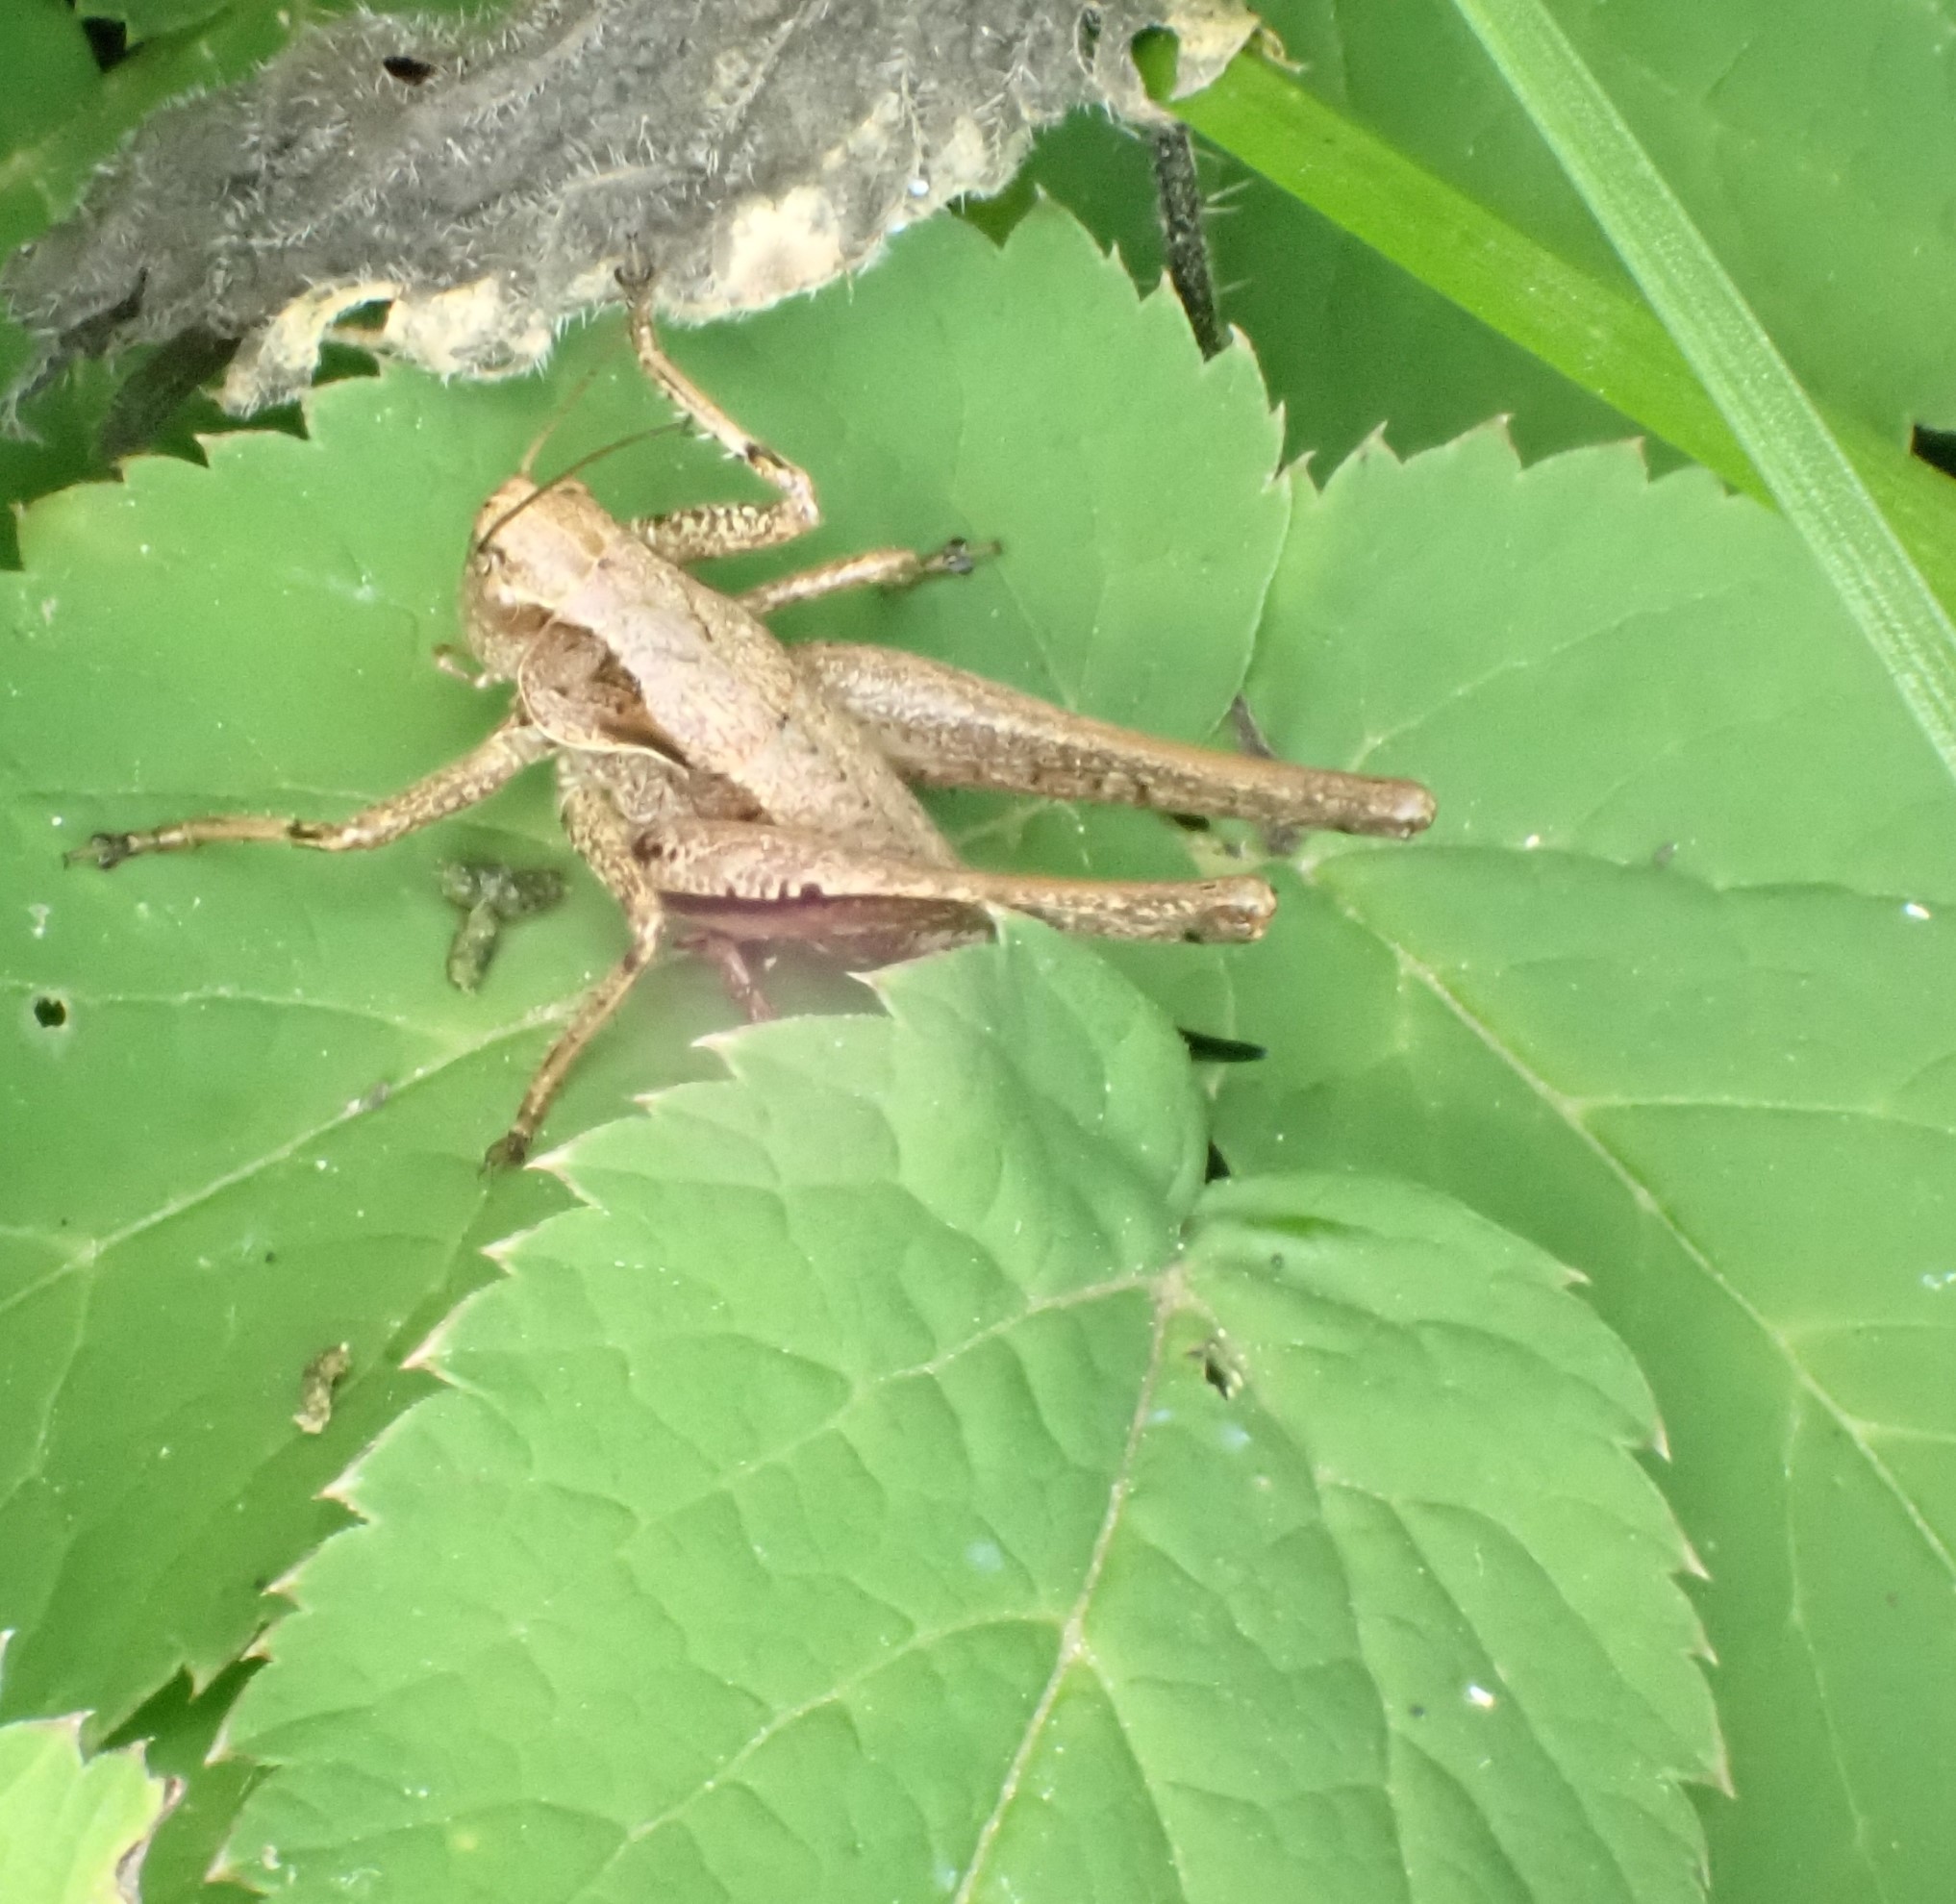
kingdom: Animalia
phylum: Arthropoda
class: Insecta
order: Orthoptera
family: Tettigoniidae
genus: Pholidoptera
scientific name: Pholidoptera griseoaptera
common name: Dark bush-cricket
